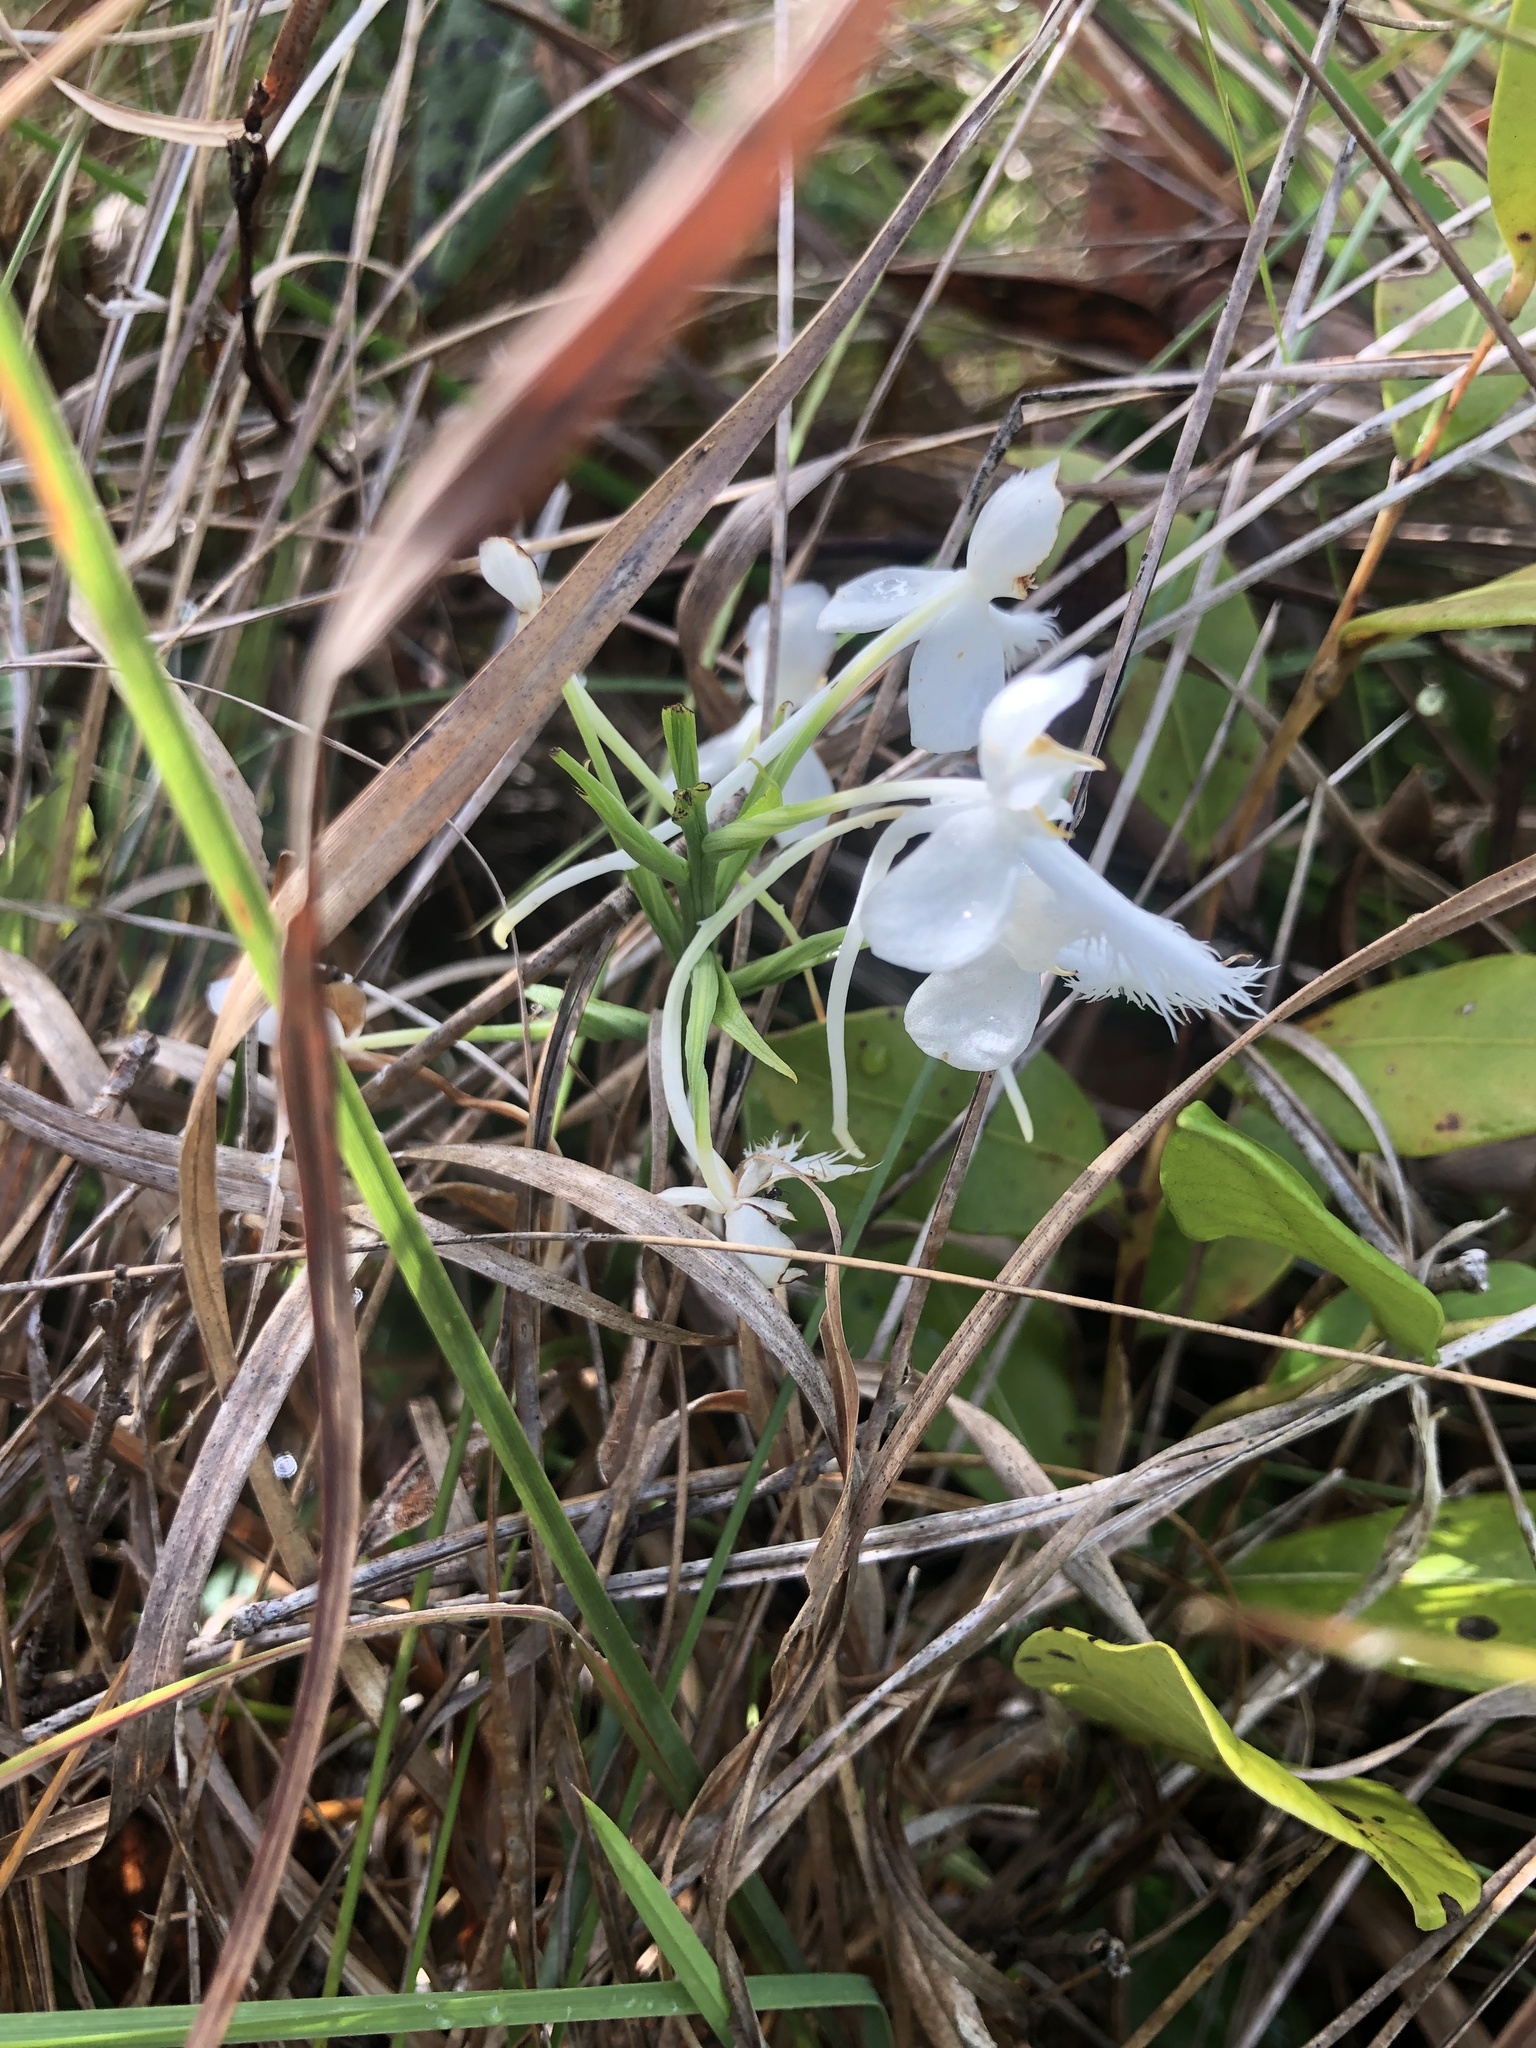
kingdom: Plantae
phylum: Tracheophyta
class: Liliopsida
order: Asparagales
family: Orchidaceae
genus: Platanthera
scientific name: Platanthera blephariglottis
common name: White fringed orchid
